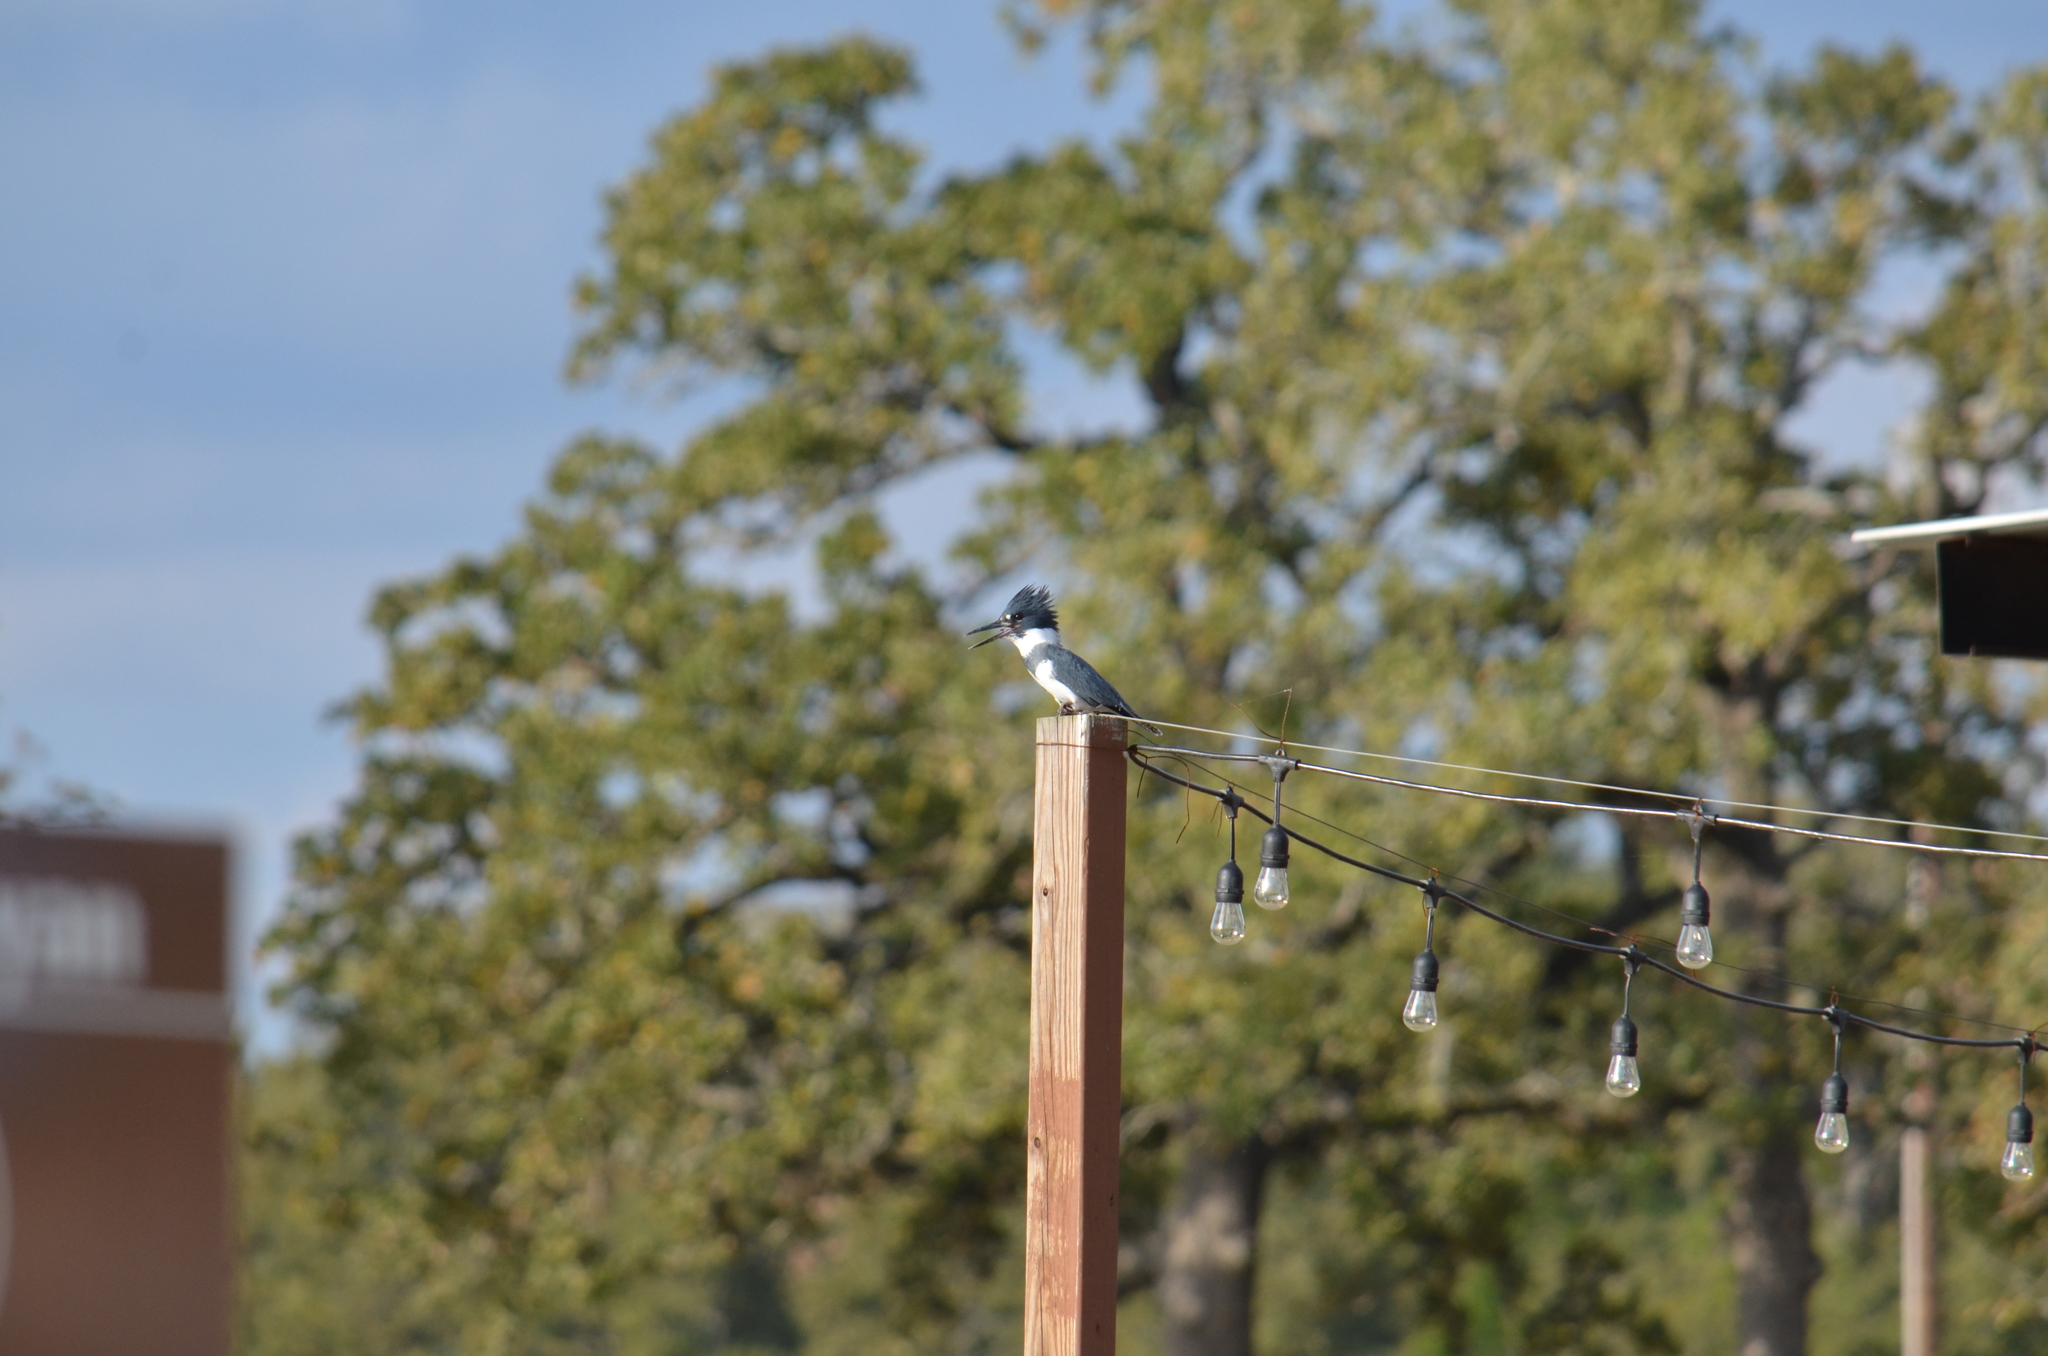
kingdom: Animalia
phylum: Chordata
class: Aves
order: Coraciiformes
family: Alcedinidae
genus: Megaceryle
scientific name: Megaceryle alcyon
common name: Belted kingfisher
